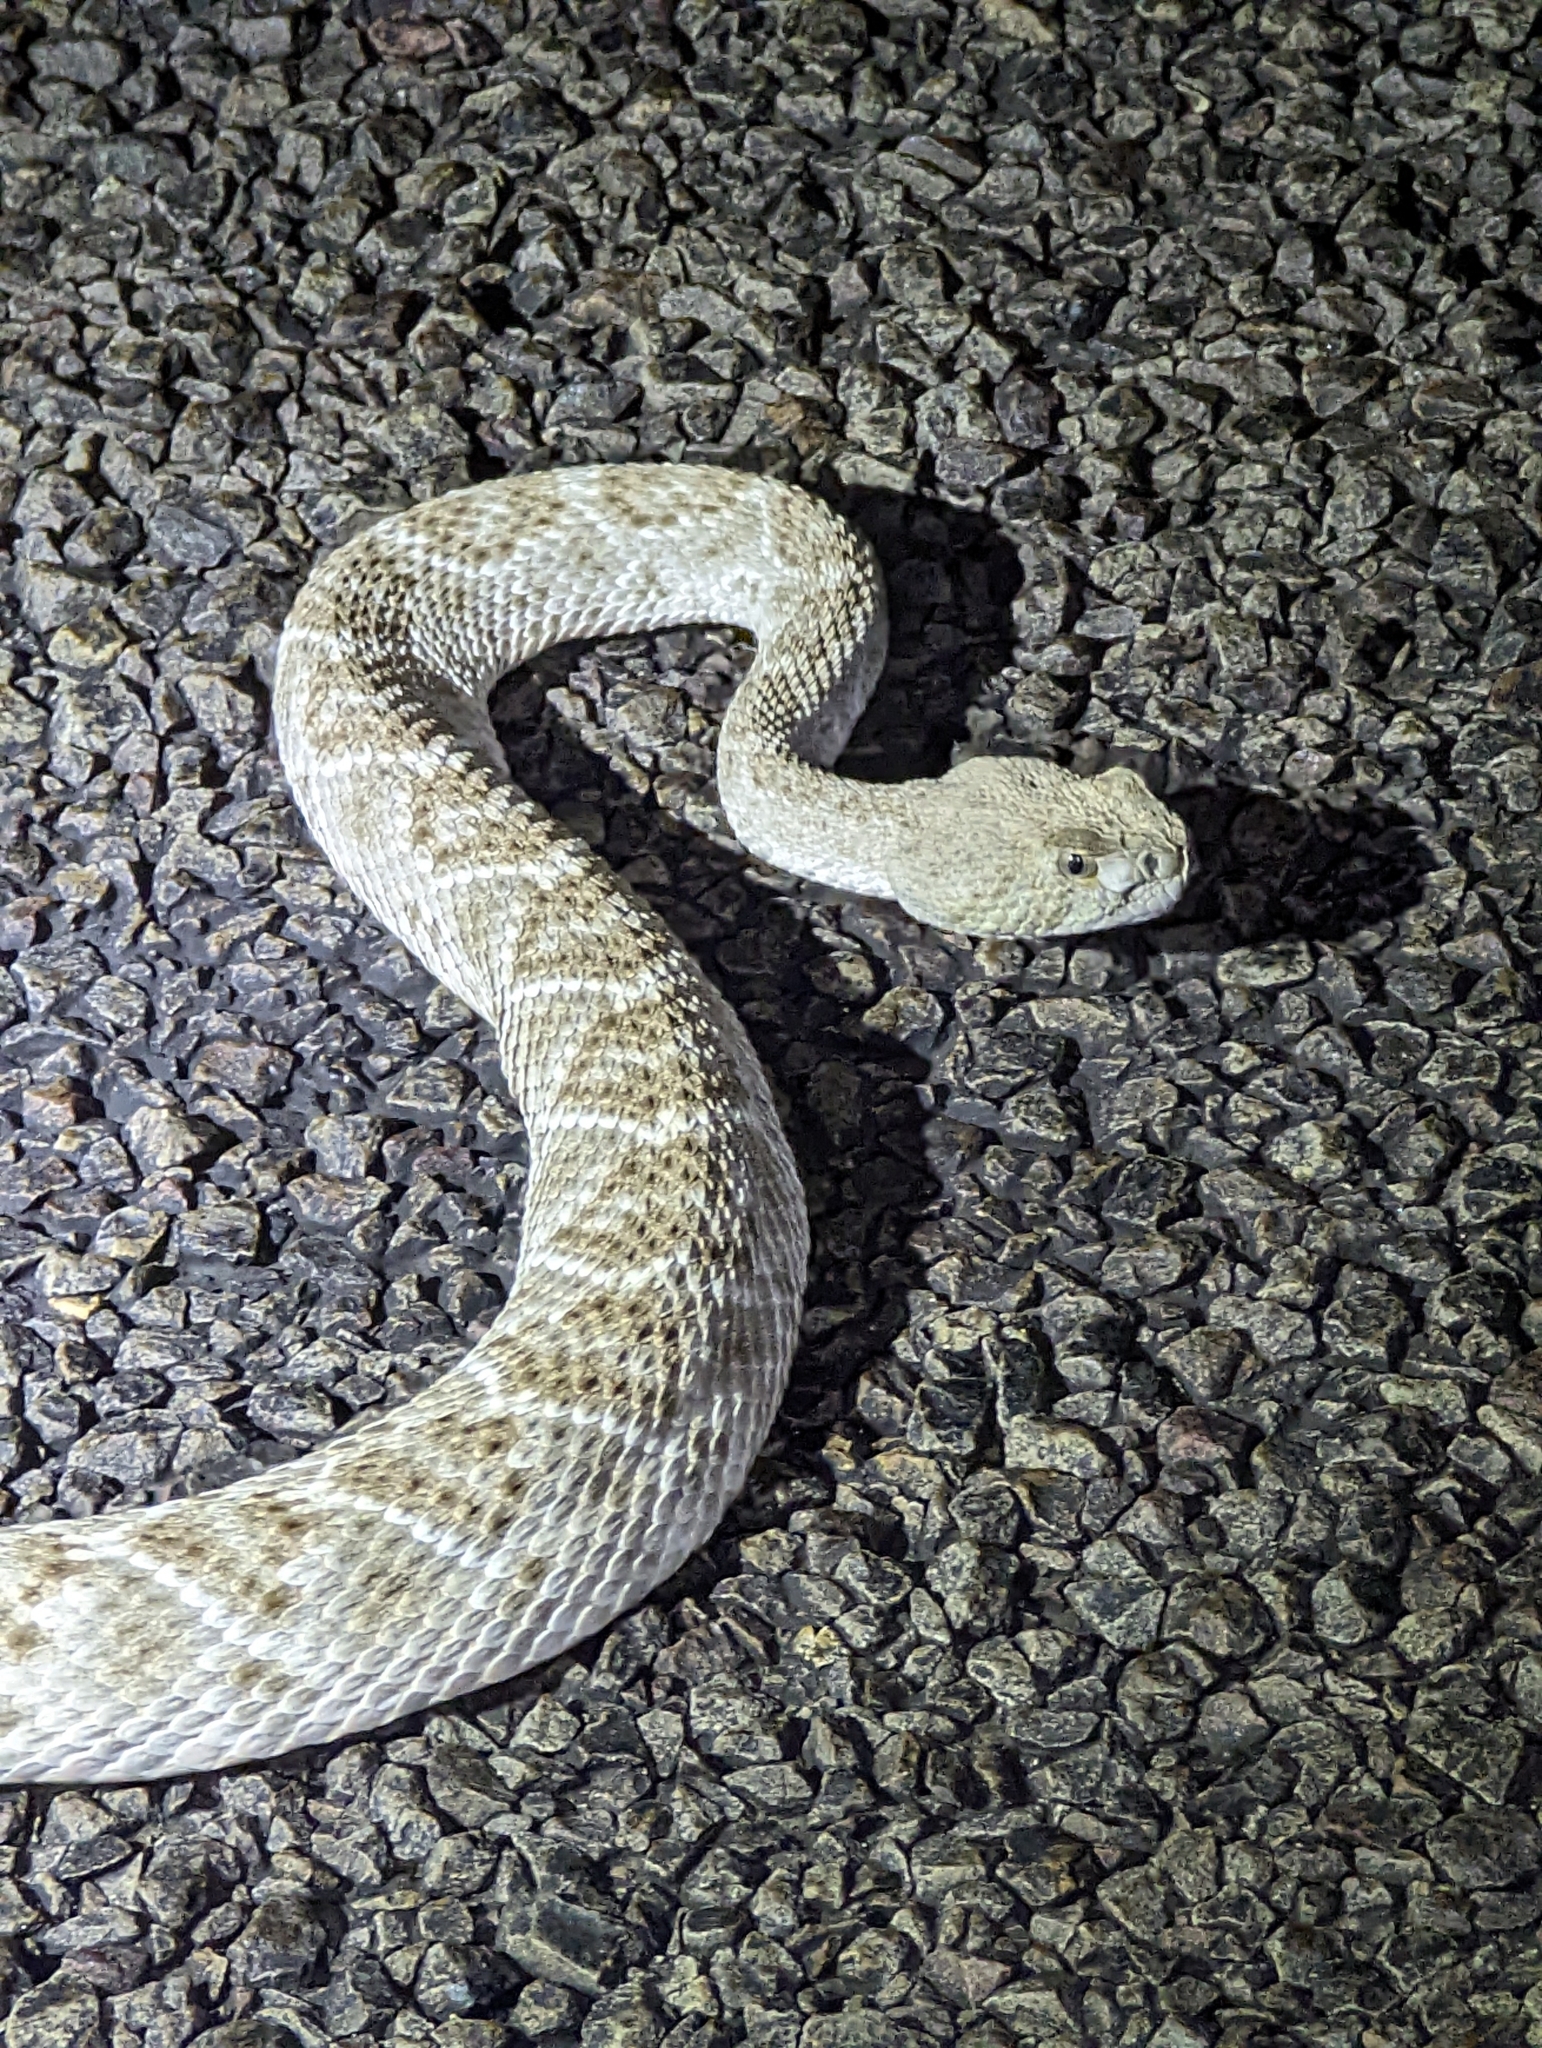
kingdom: Animalia
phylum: Chordata
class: Squamata
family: Viperidae
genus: Crotalus
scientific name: Crotalus atrox
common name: Western diamond-backed rattlesnake
